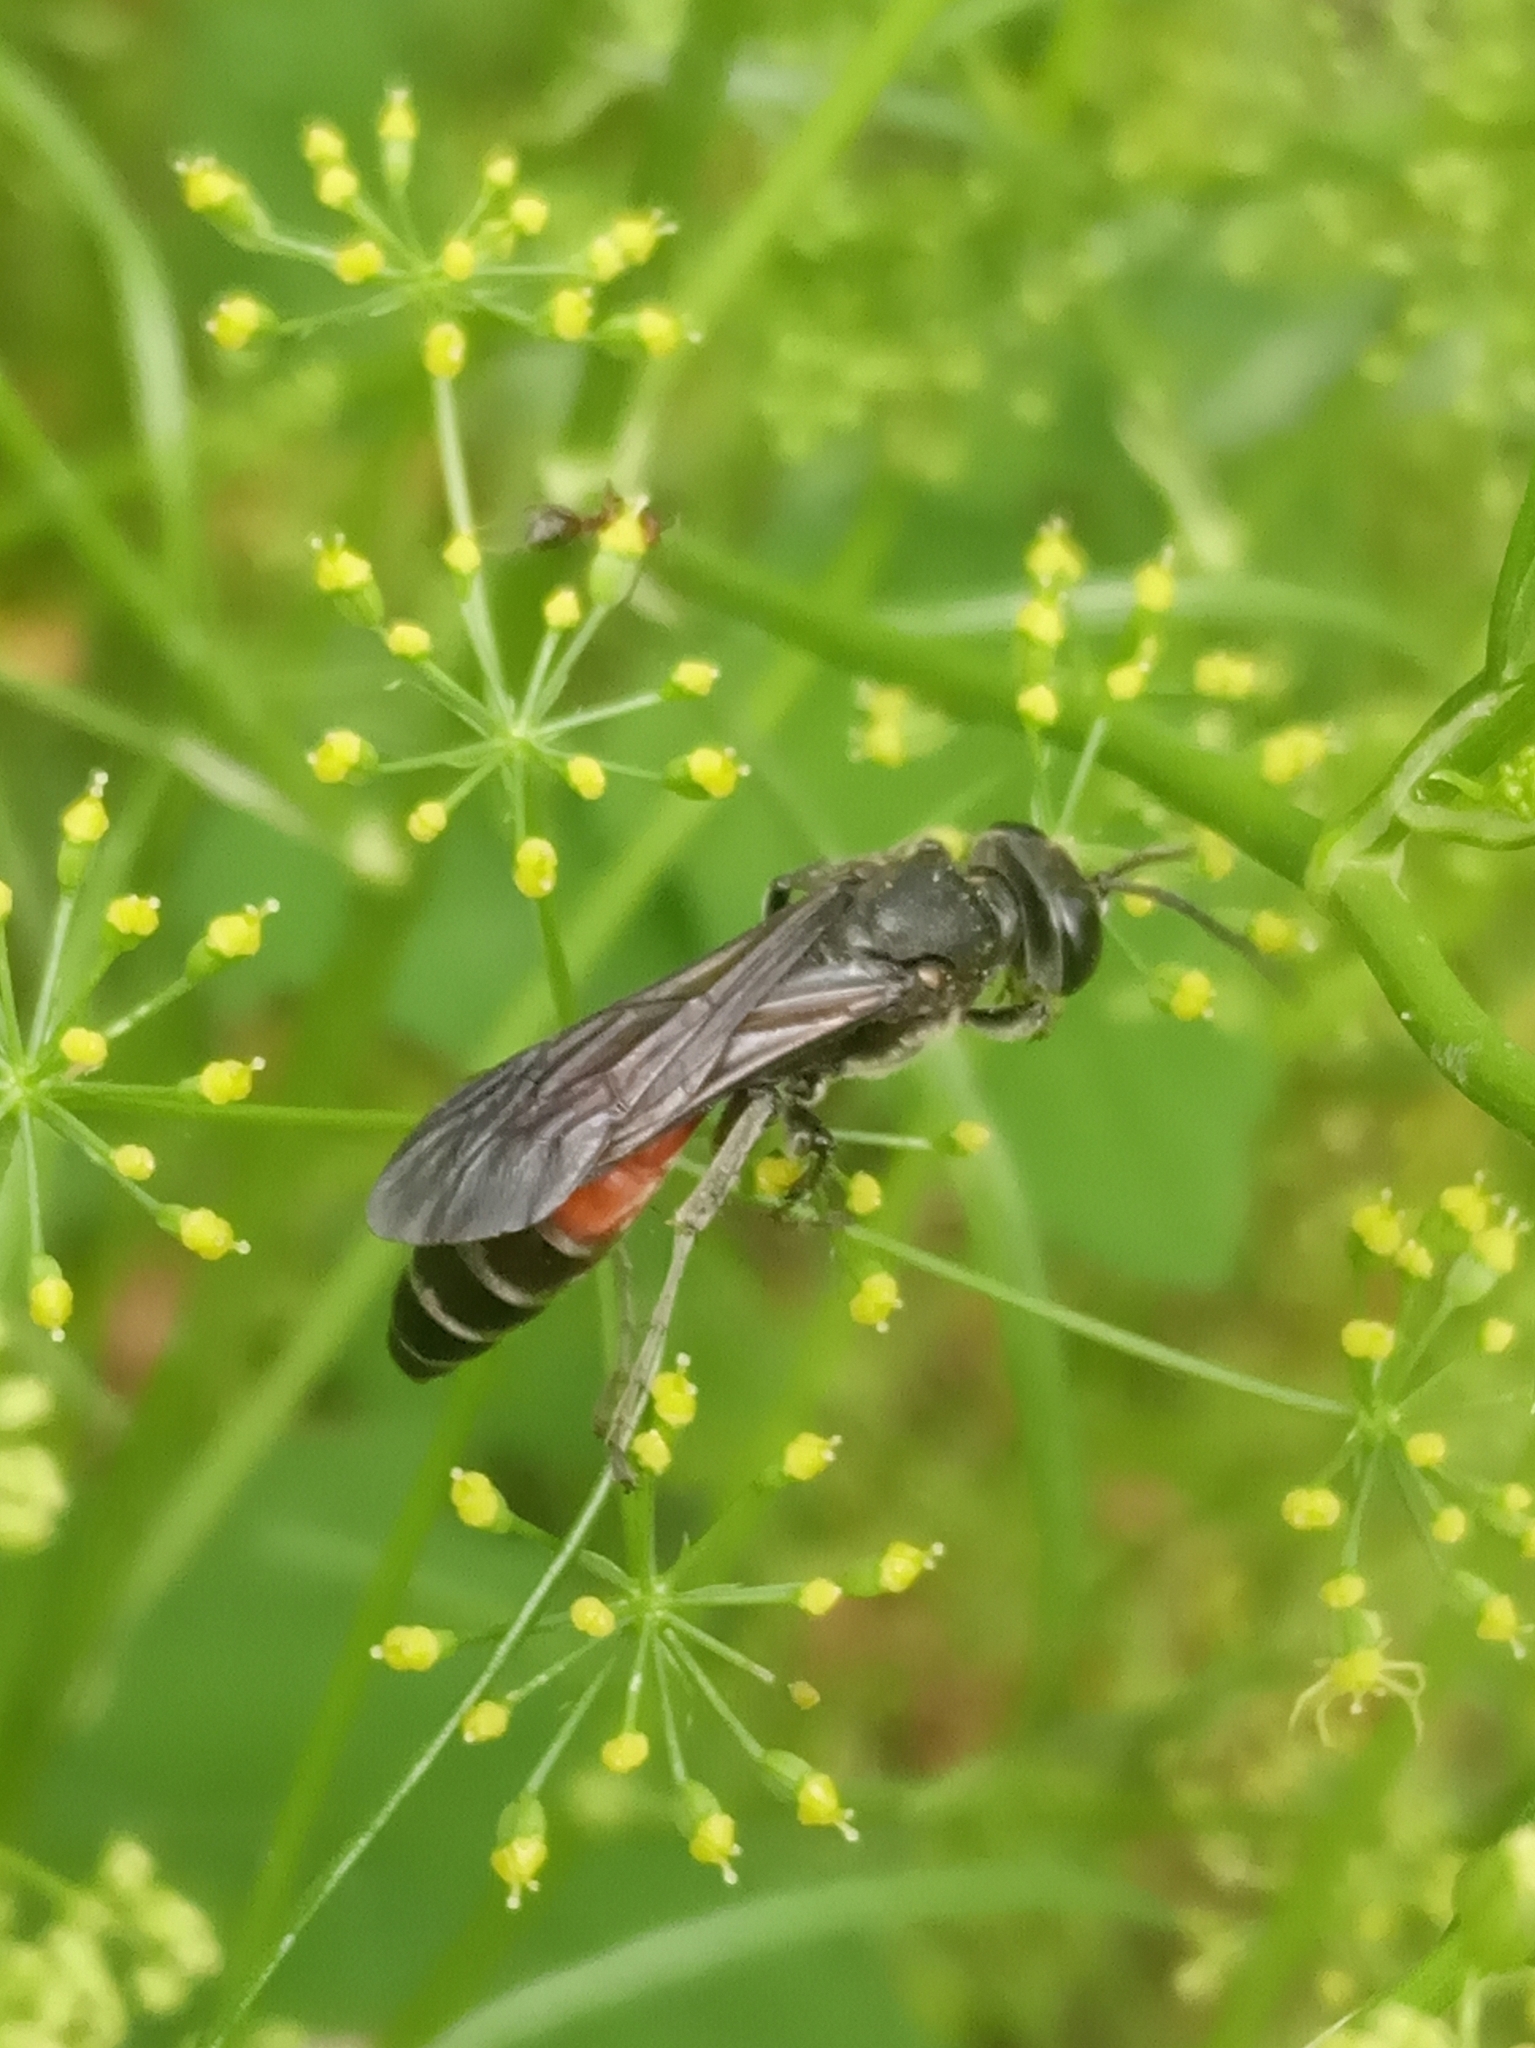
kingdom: Animalia
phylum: Arthropoda
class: Insecta
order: Hymenoptera
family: Crabronidae
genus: Larra
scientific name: Larra anathema
